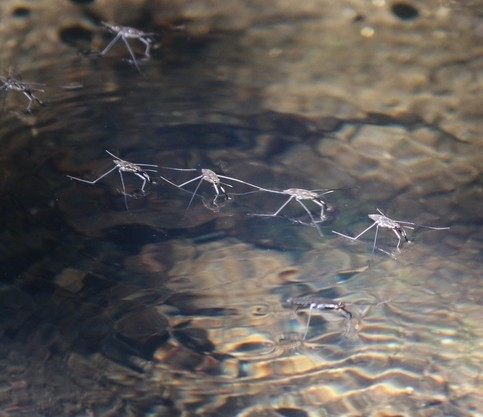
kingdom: Animalia
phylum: Arthropoda
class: Insecta
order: Hemiptera
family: Gerridae
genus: Aquarius
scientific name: Aquarius remigis
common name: Common water strider
